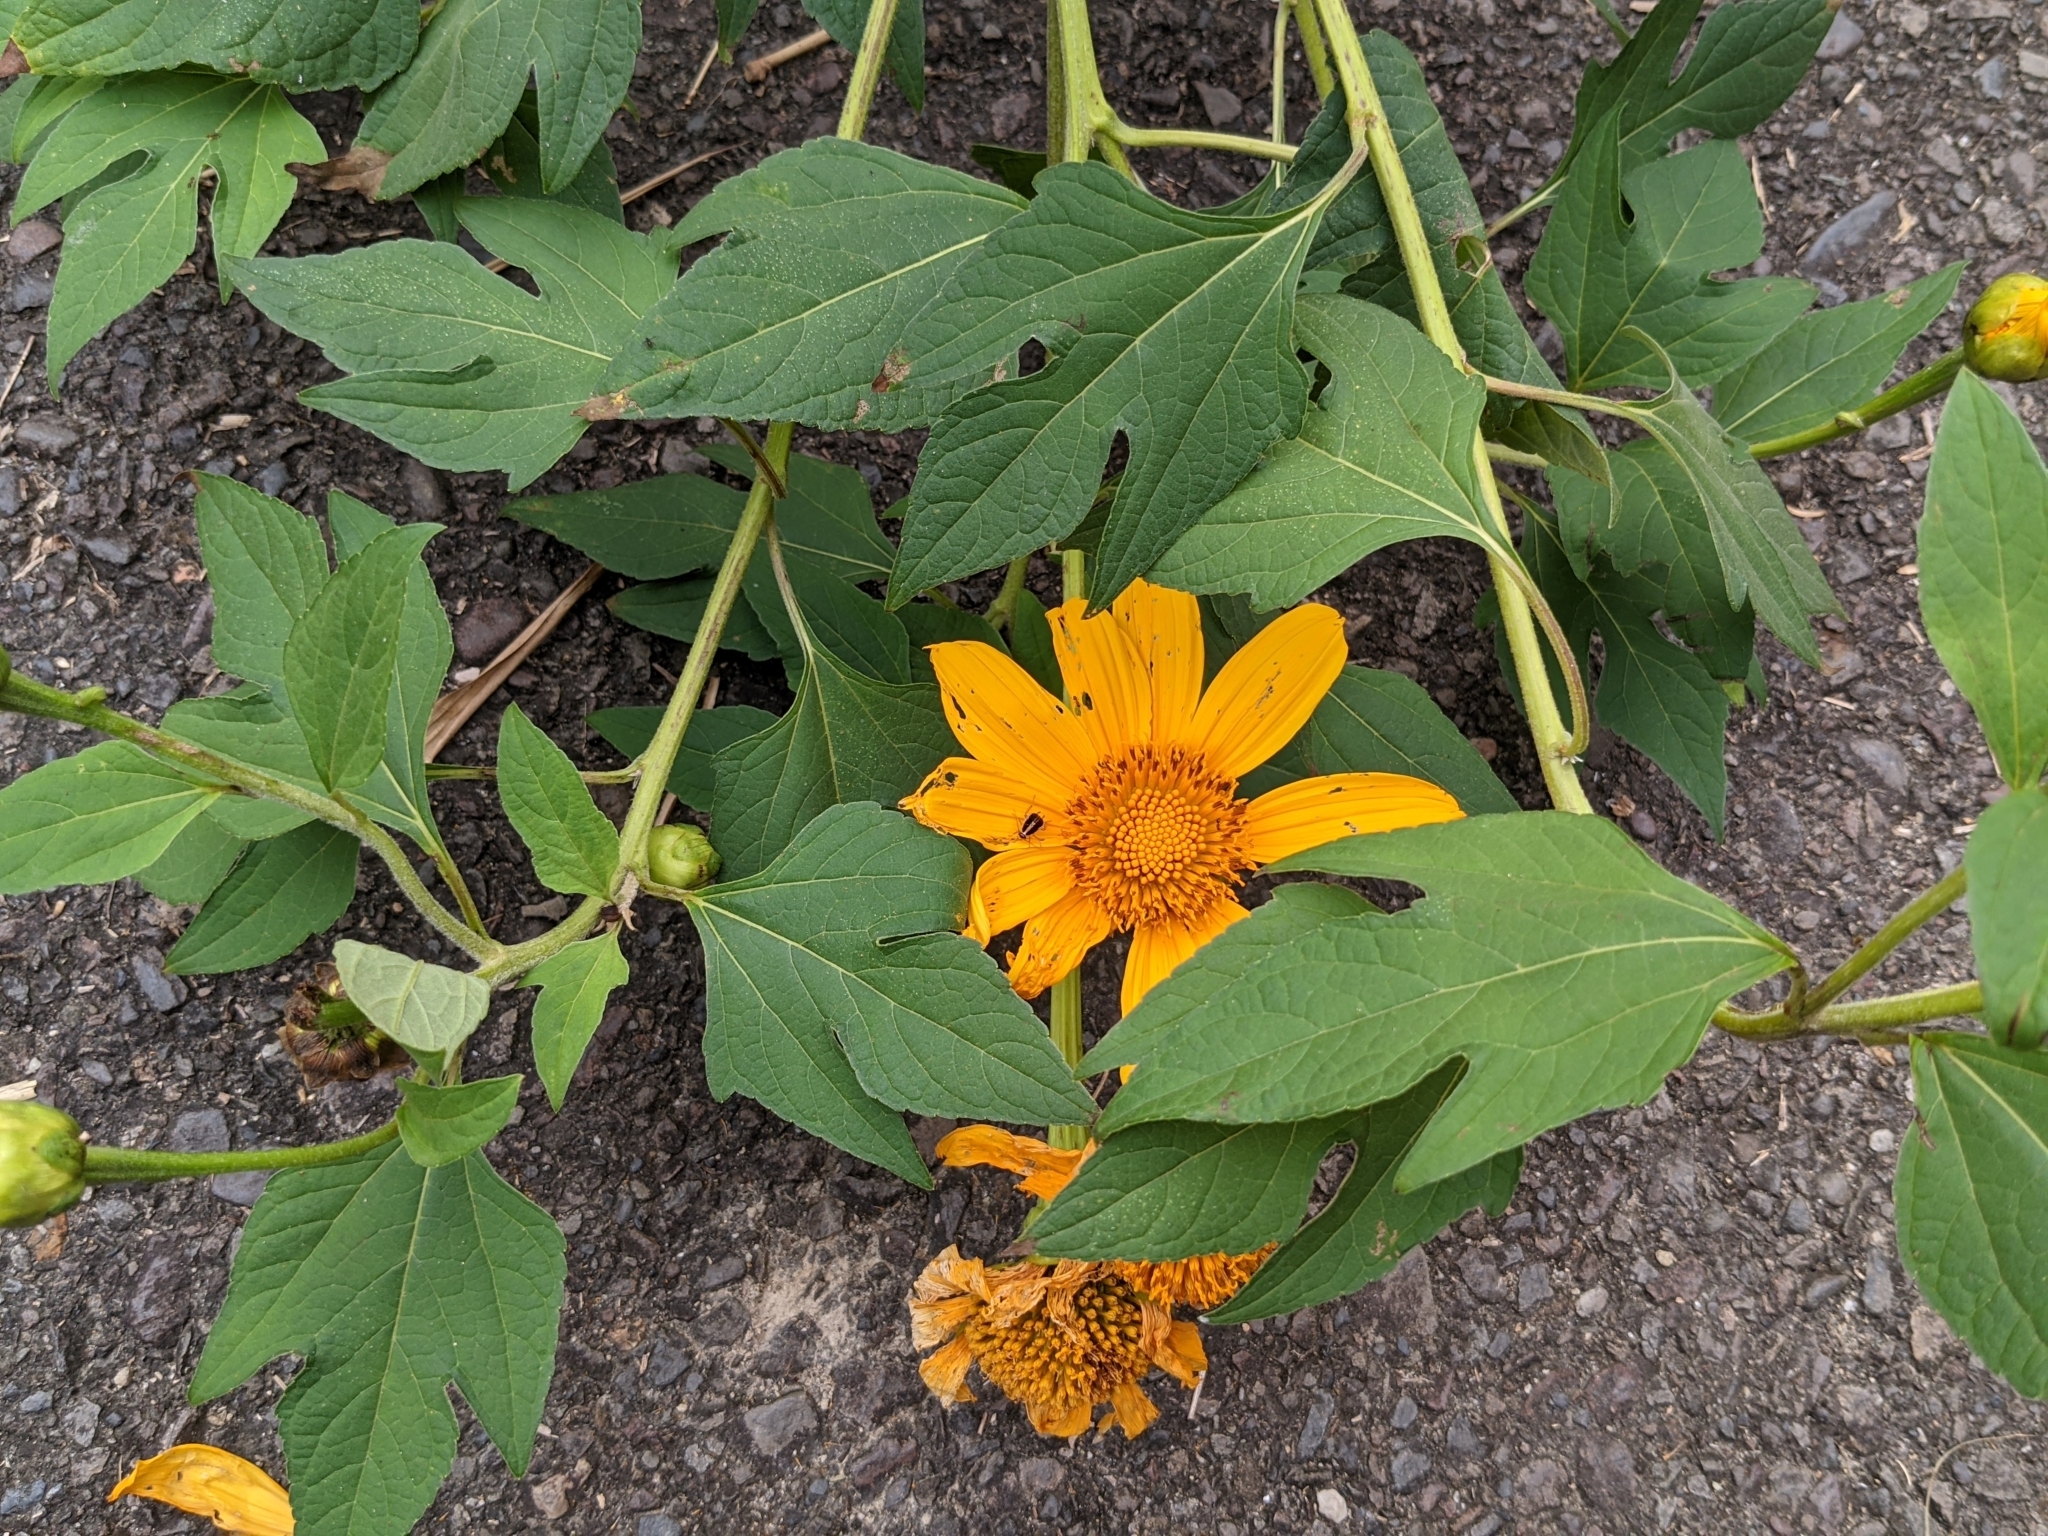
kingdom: Plantae
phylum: Tracheophyta
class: Magnoliopsida
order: Asterales
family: Asteraceae
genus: Tithonia
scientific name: Tithonia diversifolia
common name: Tree marigold
